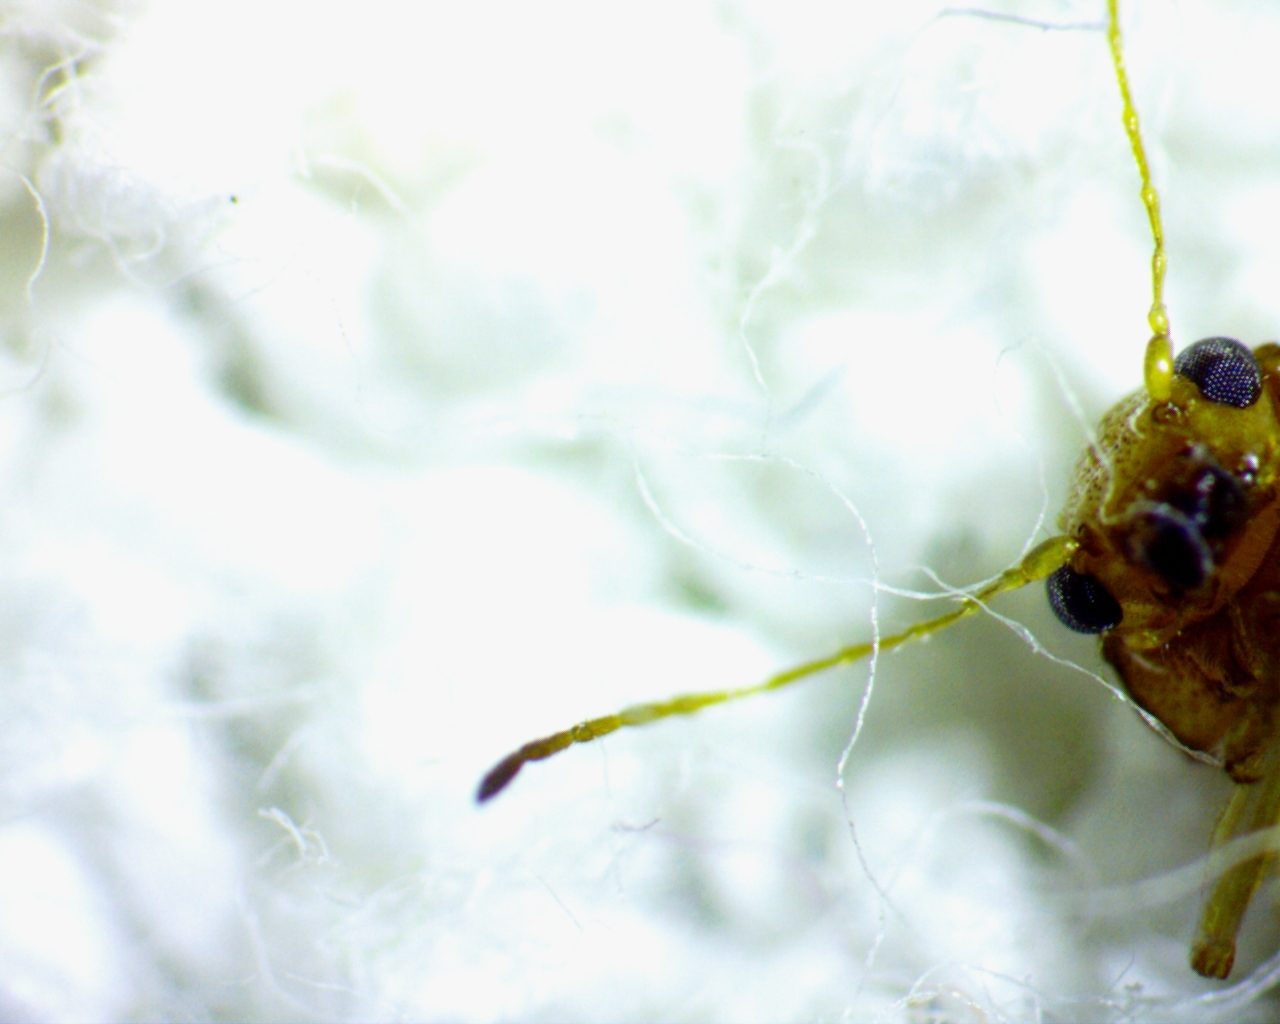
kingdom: Animalia
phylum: Arthropoda
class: Insecta
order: Coleoptera
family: Chrysomelidae
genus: Colaspis
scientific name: Colaspis brunnea
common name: Grape colaspis
